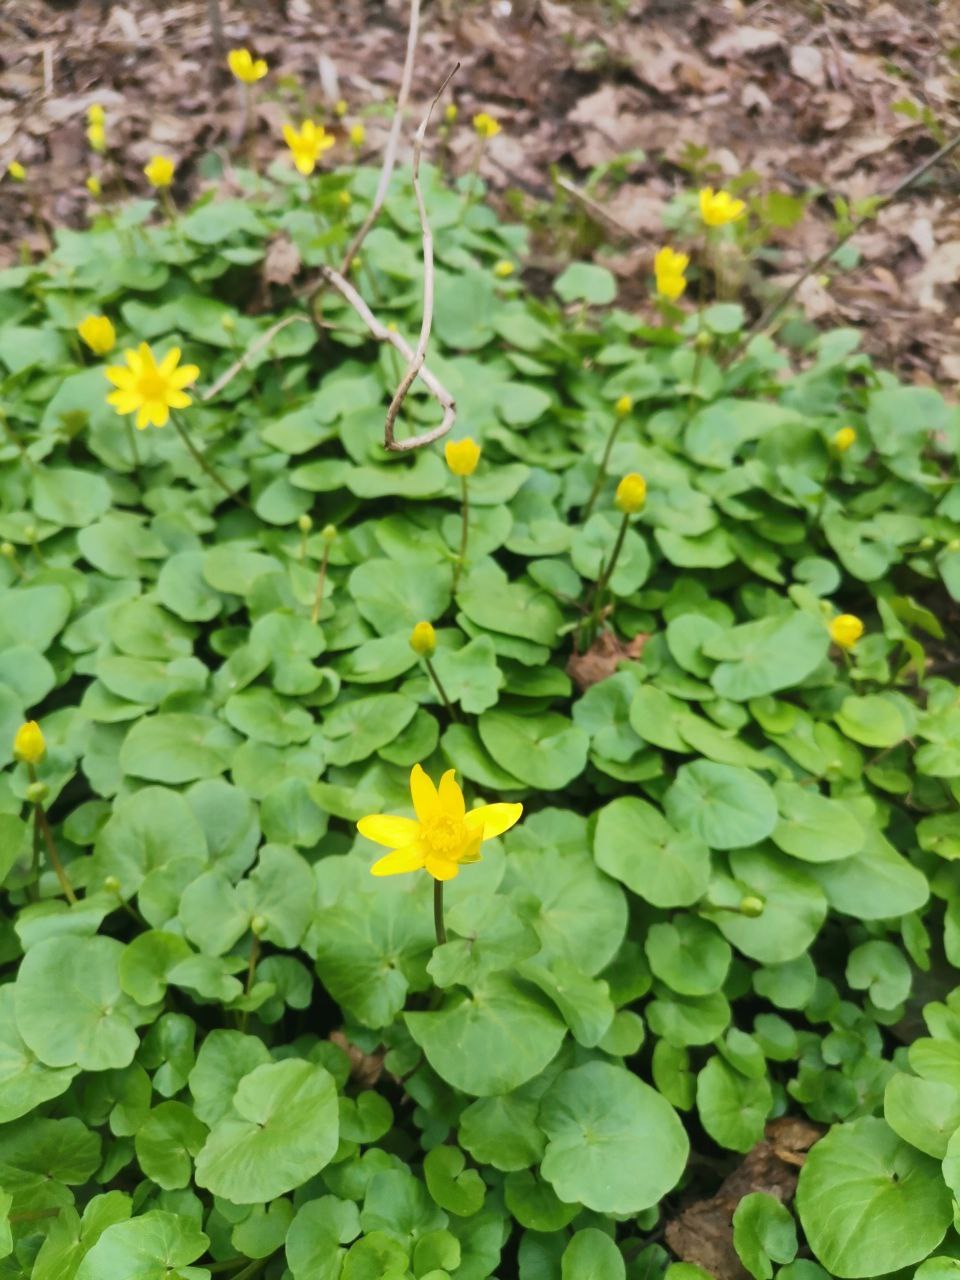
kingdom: Plantae
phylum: Tracheophyta
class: Magnoliopsida
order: Ranunculales
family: Ranunculaceae
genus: Ficaria
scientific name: Ficaria verna
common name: Lesser celandine
